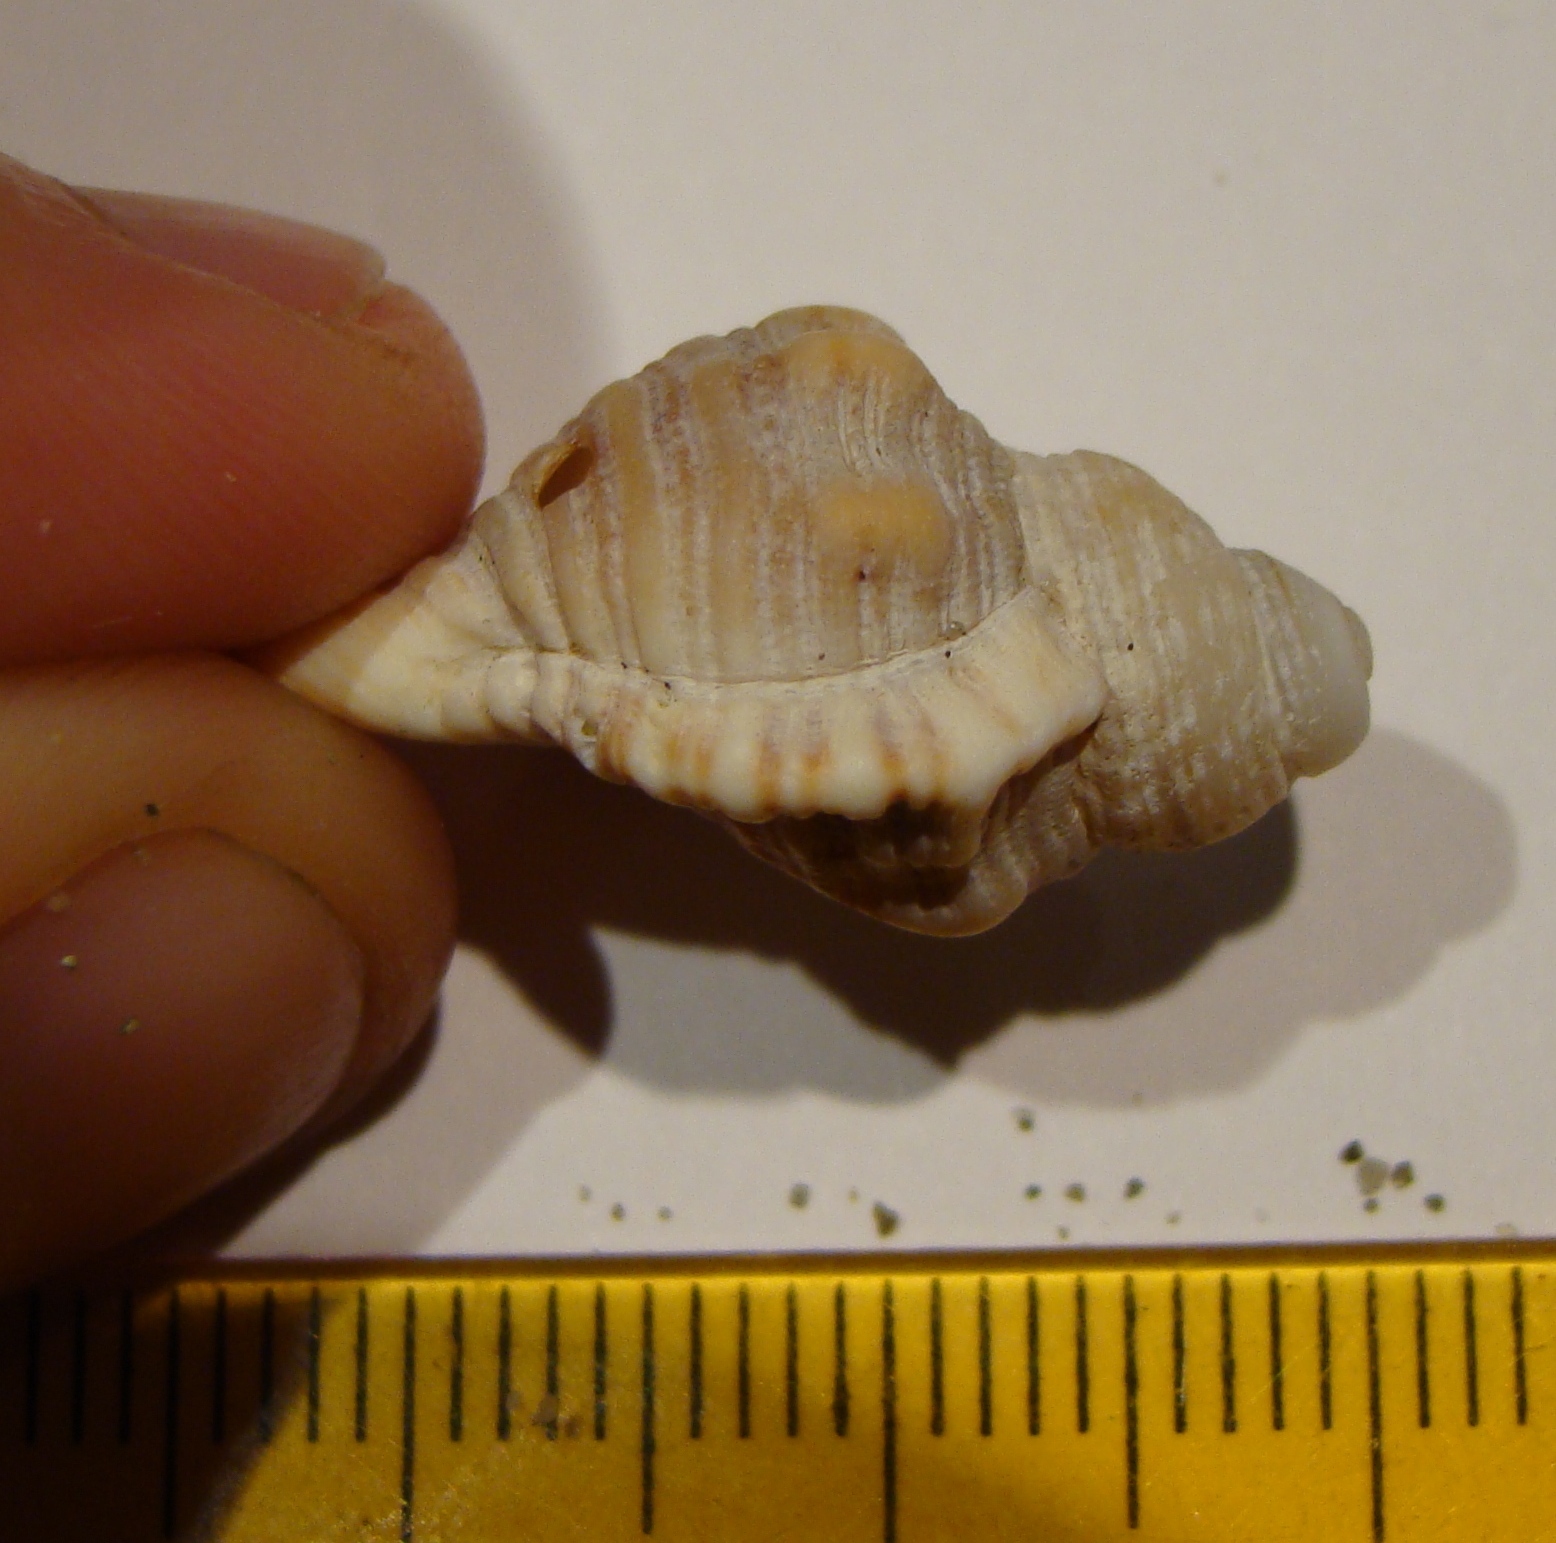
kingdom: Animalia
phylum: Mollusca
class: Gastropoda
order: Littorinimorpha
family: Cymatiidae
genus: Cabestana
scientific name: Cabestana spengleri
